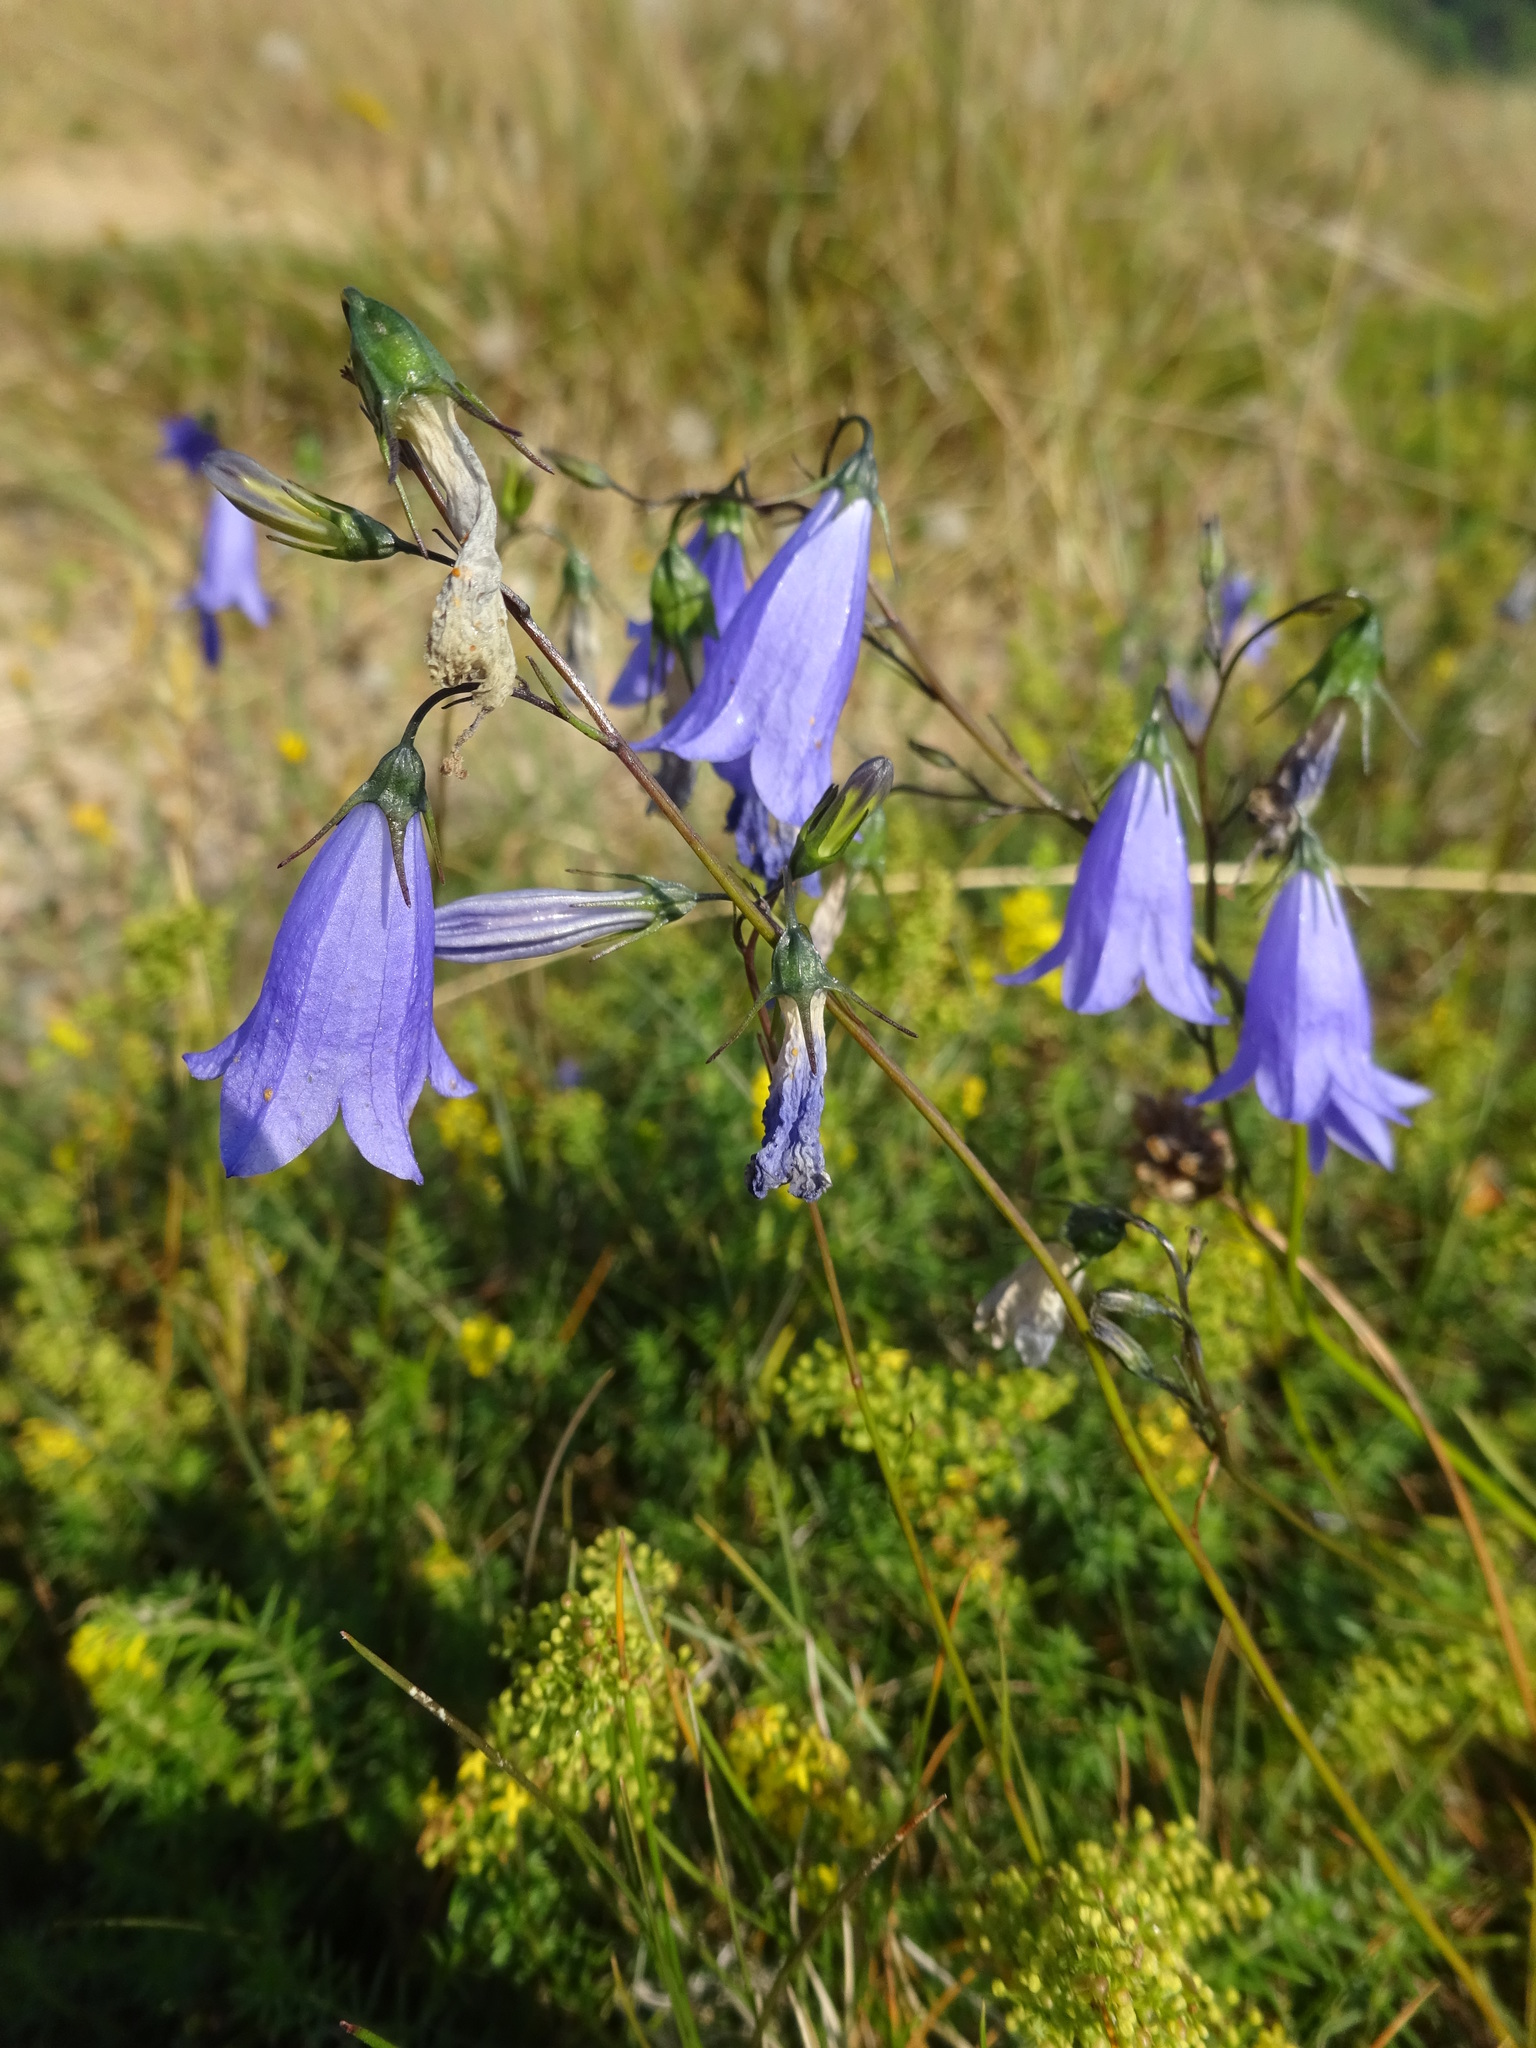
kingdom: Plantae
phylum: Tracheophyta
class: Magnoliopsida
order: Asterales
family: Campanulaceae
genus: Campanula
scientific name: Campanula rotundifolia
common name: Harebell
